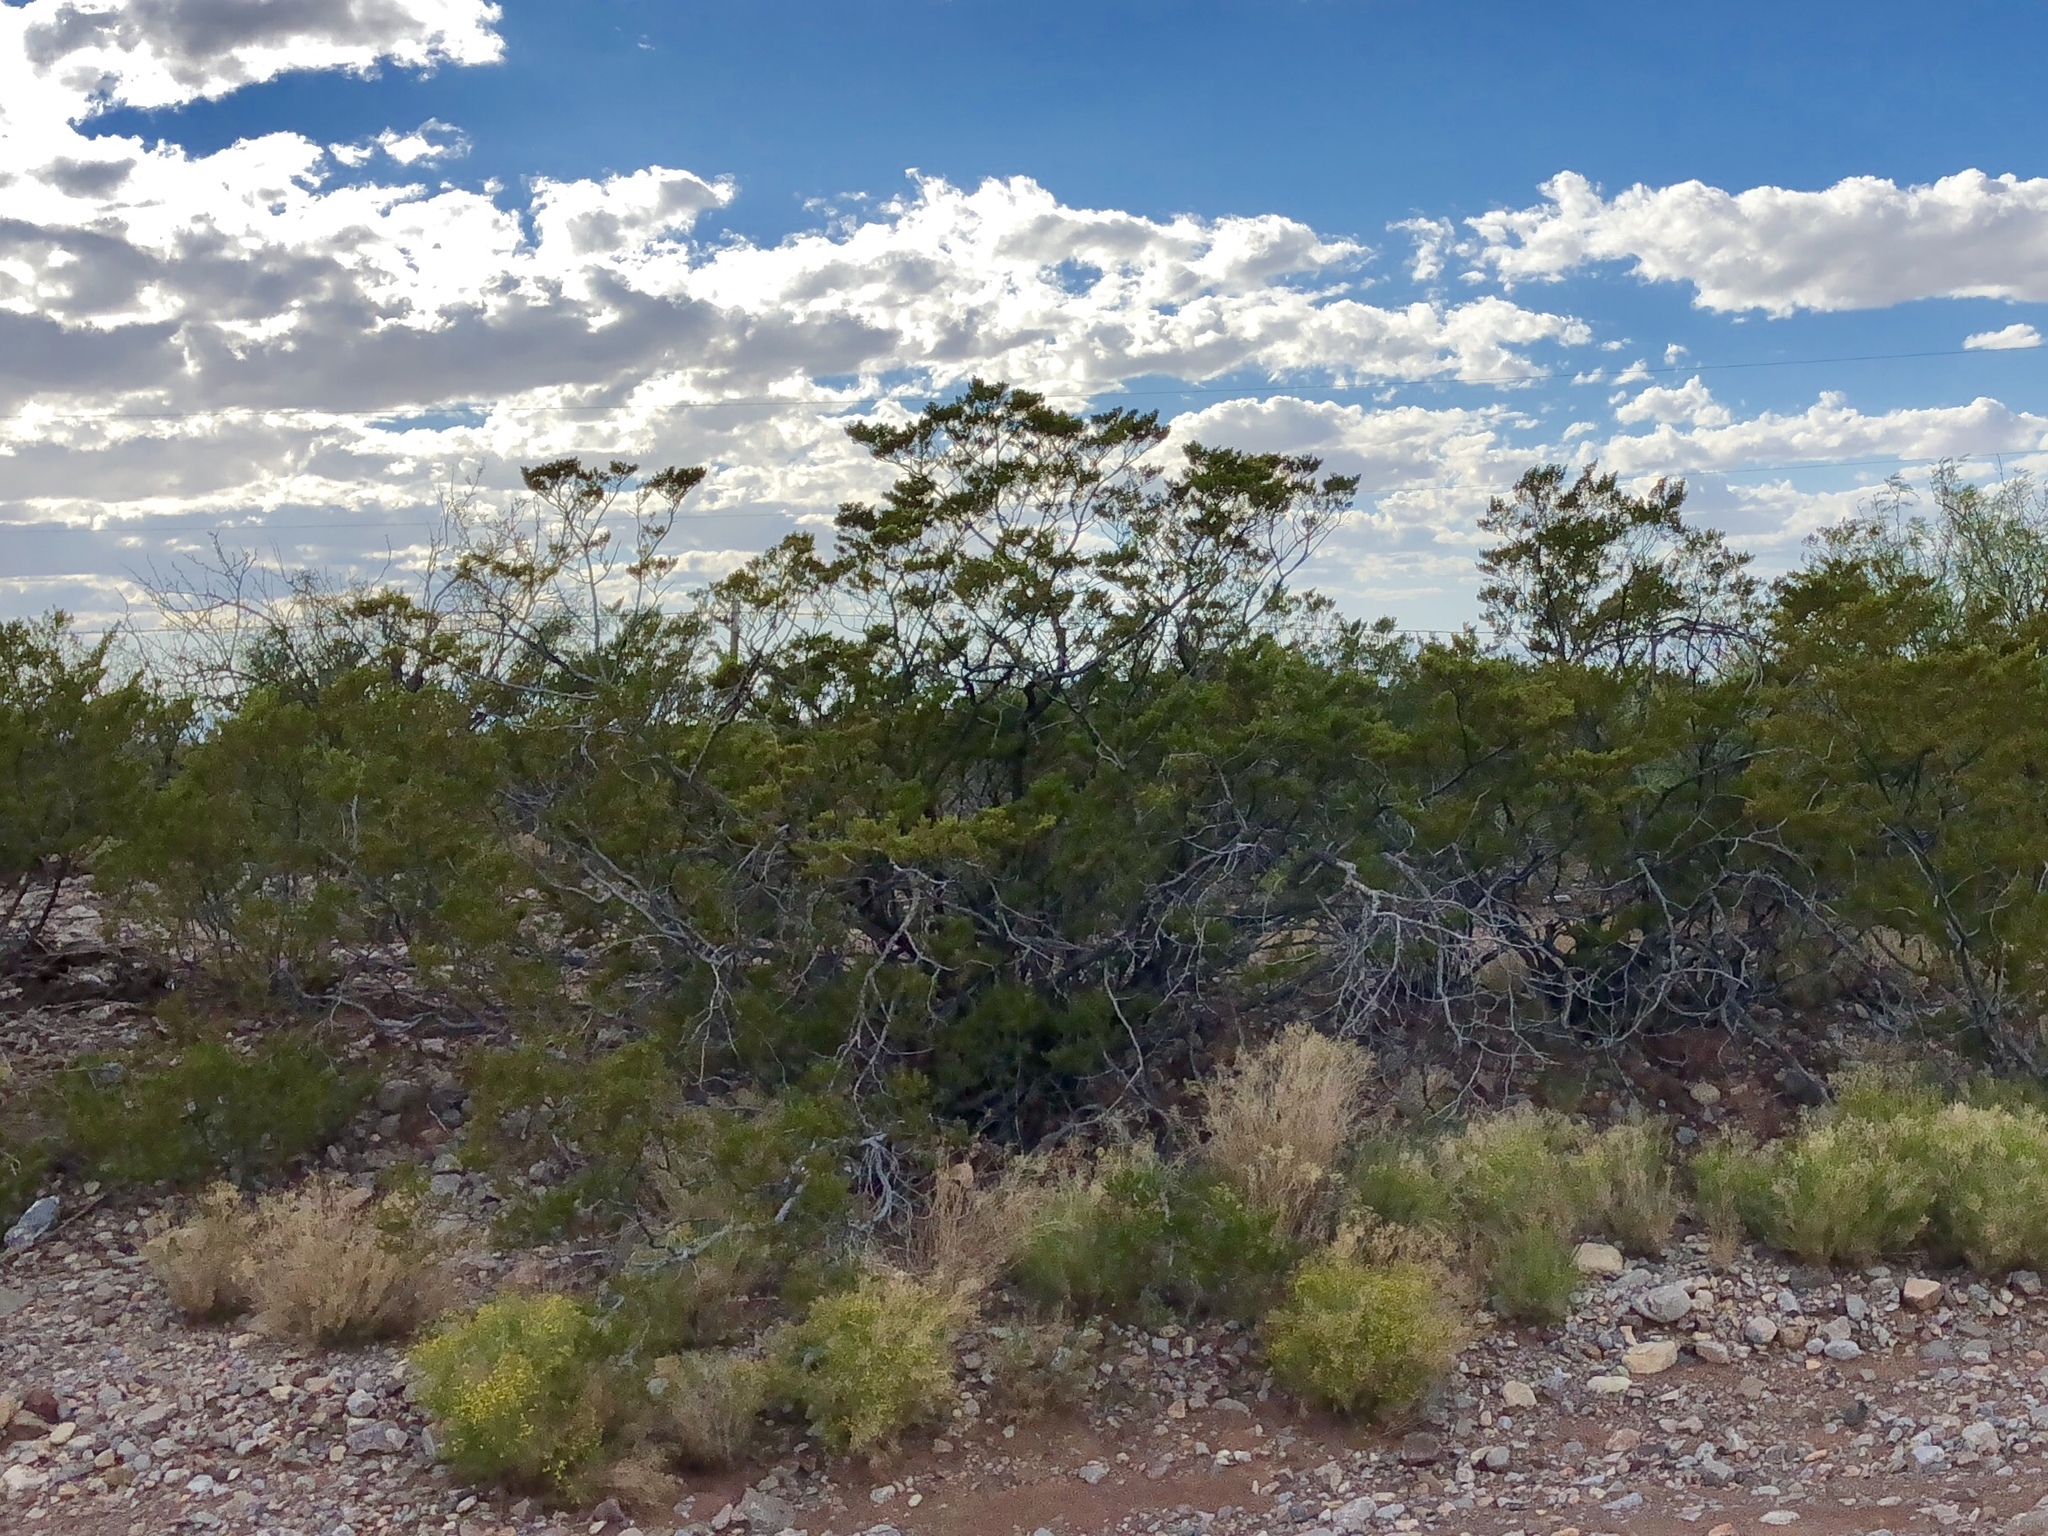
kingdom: Plantae
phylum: Tracheophyta
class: Magnoliopsida
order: Zygophyllales
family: Zygophyllaceae
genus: Larrea
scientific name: Larrea tridentata
